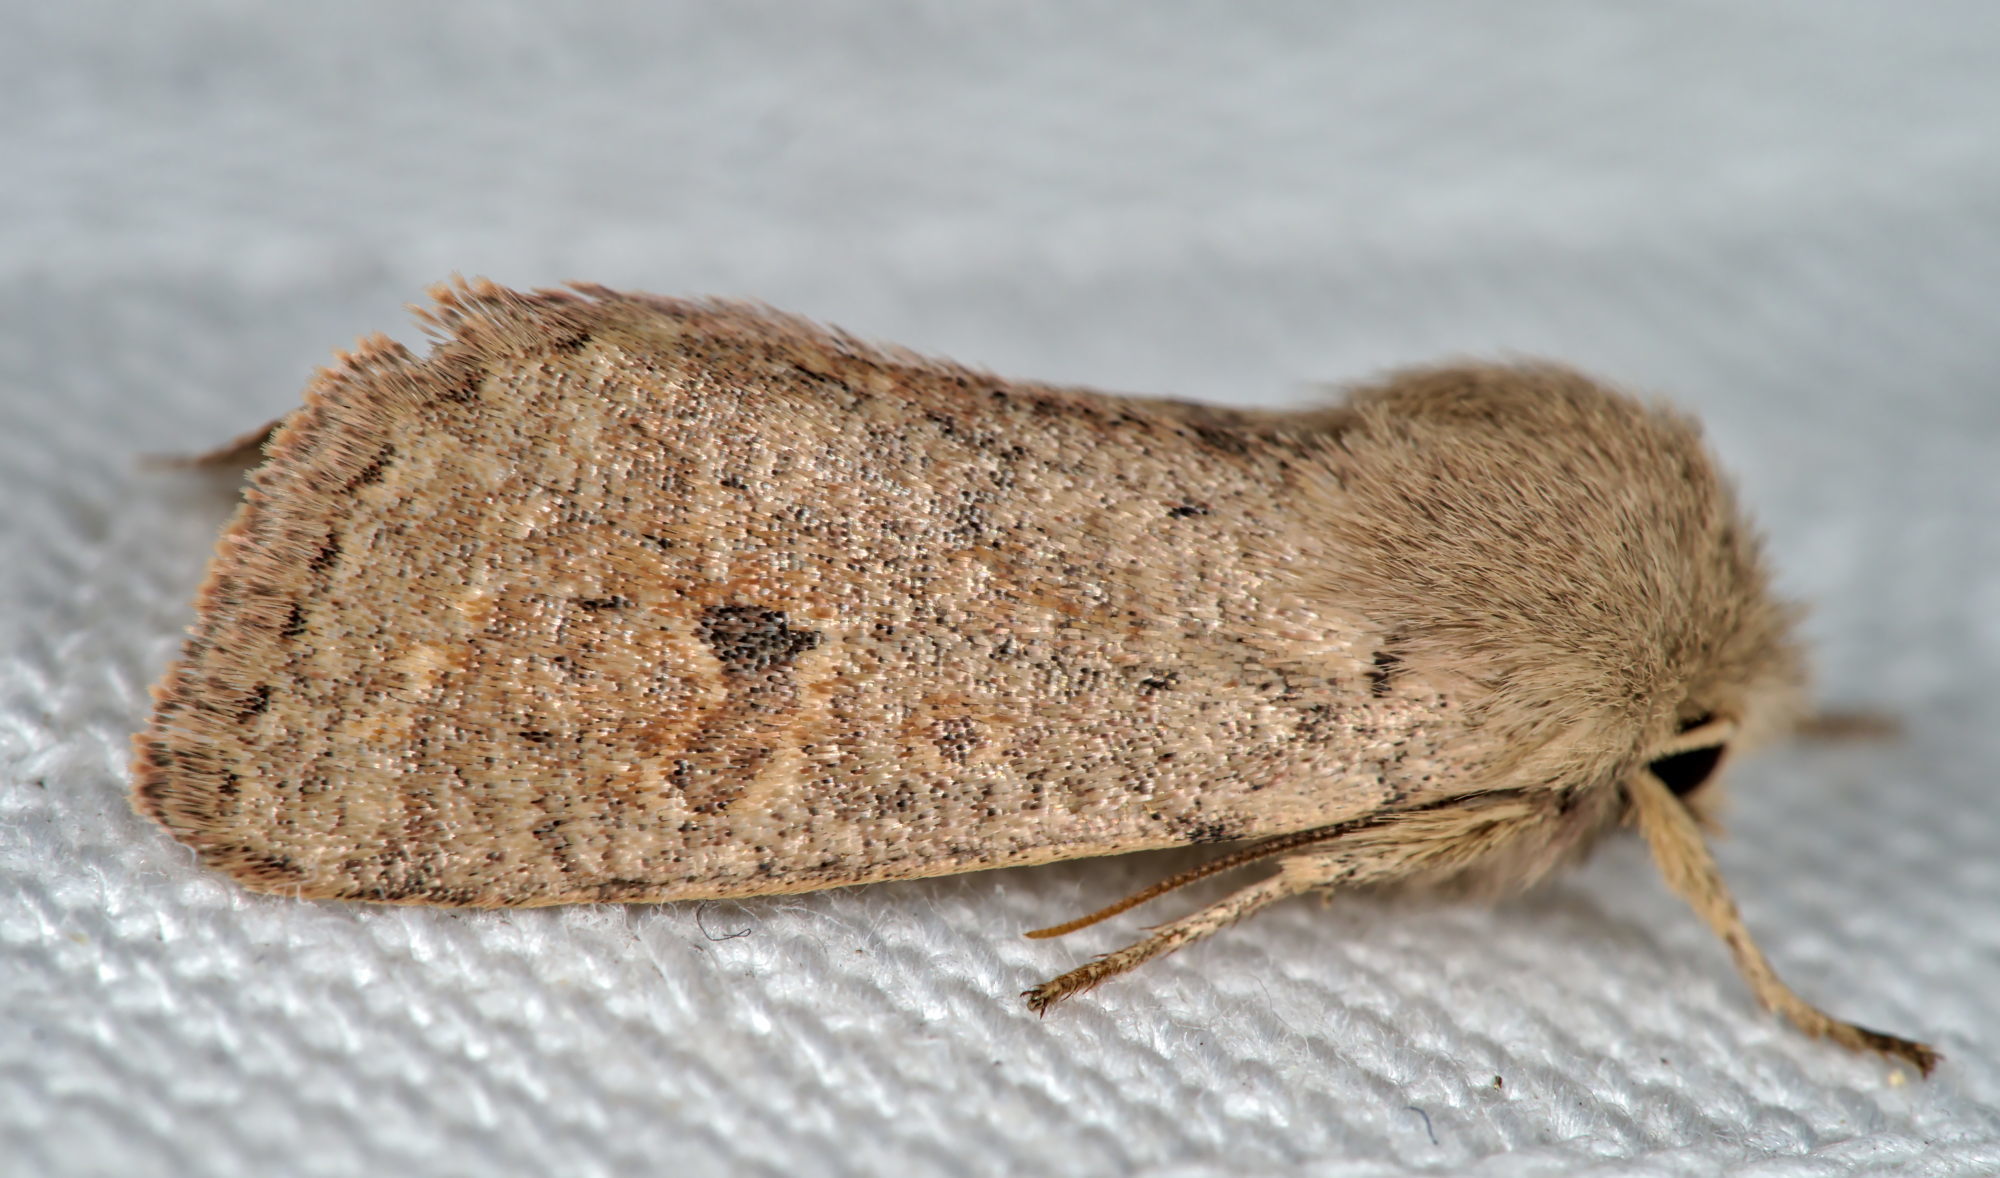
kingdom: Animalia
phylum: Arthropoda
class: Insecta
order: Lepidoptera
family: Noctuidae
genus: Orthosia
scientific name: Orthosia cruda
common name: Small quaker
